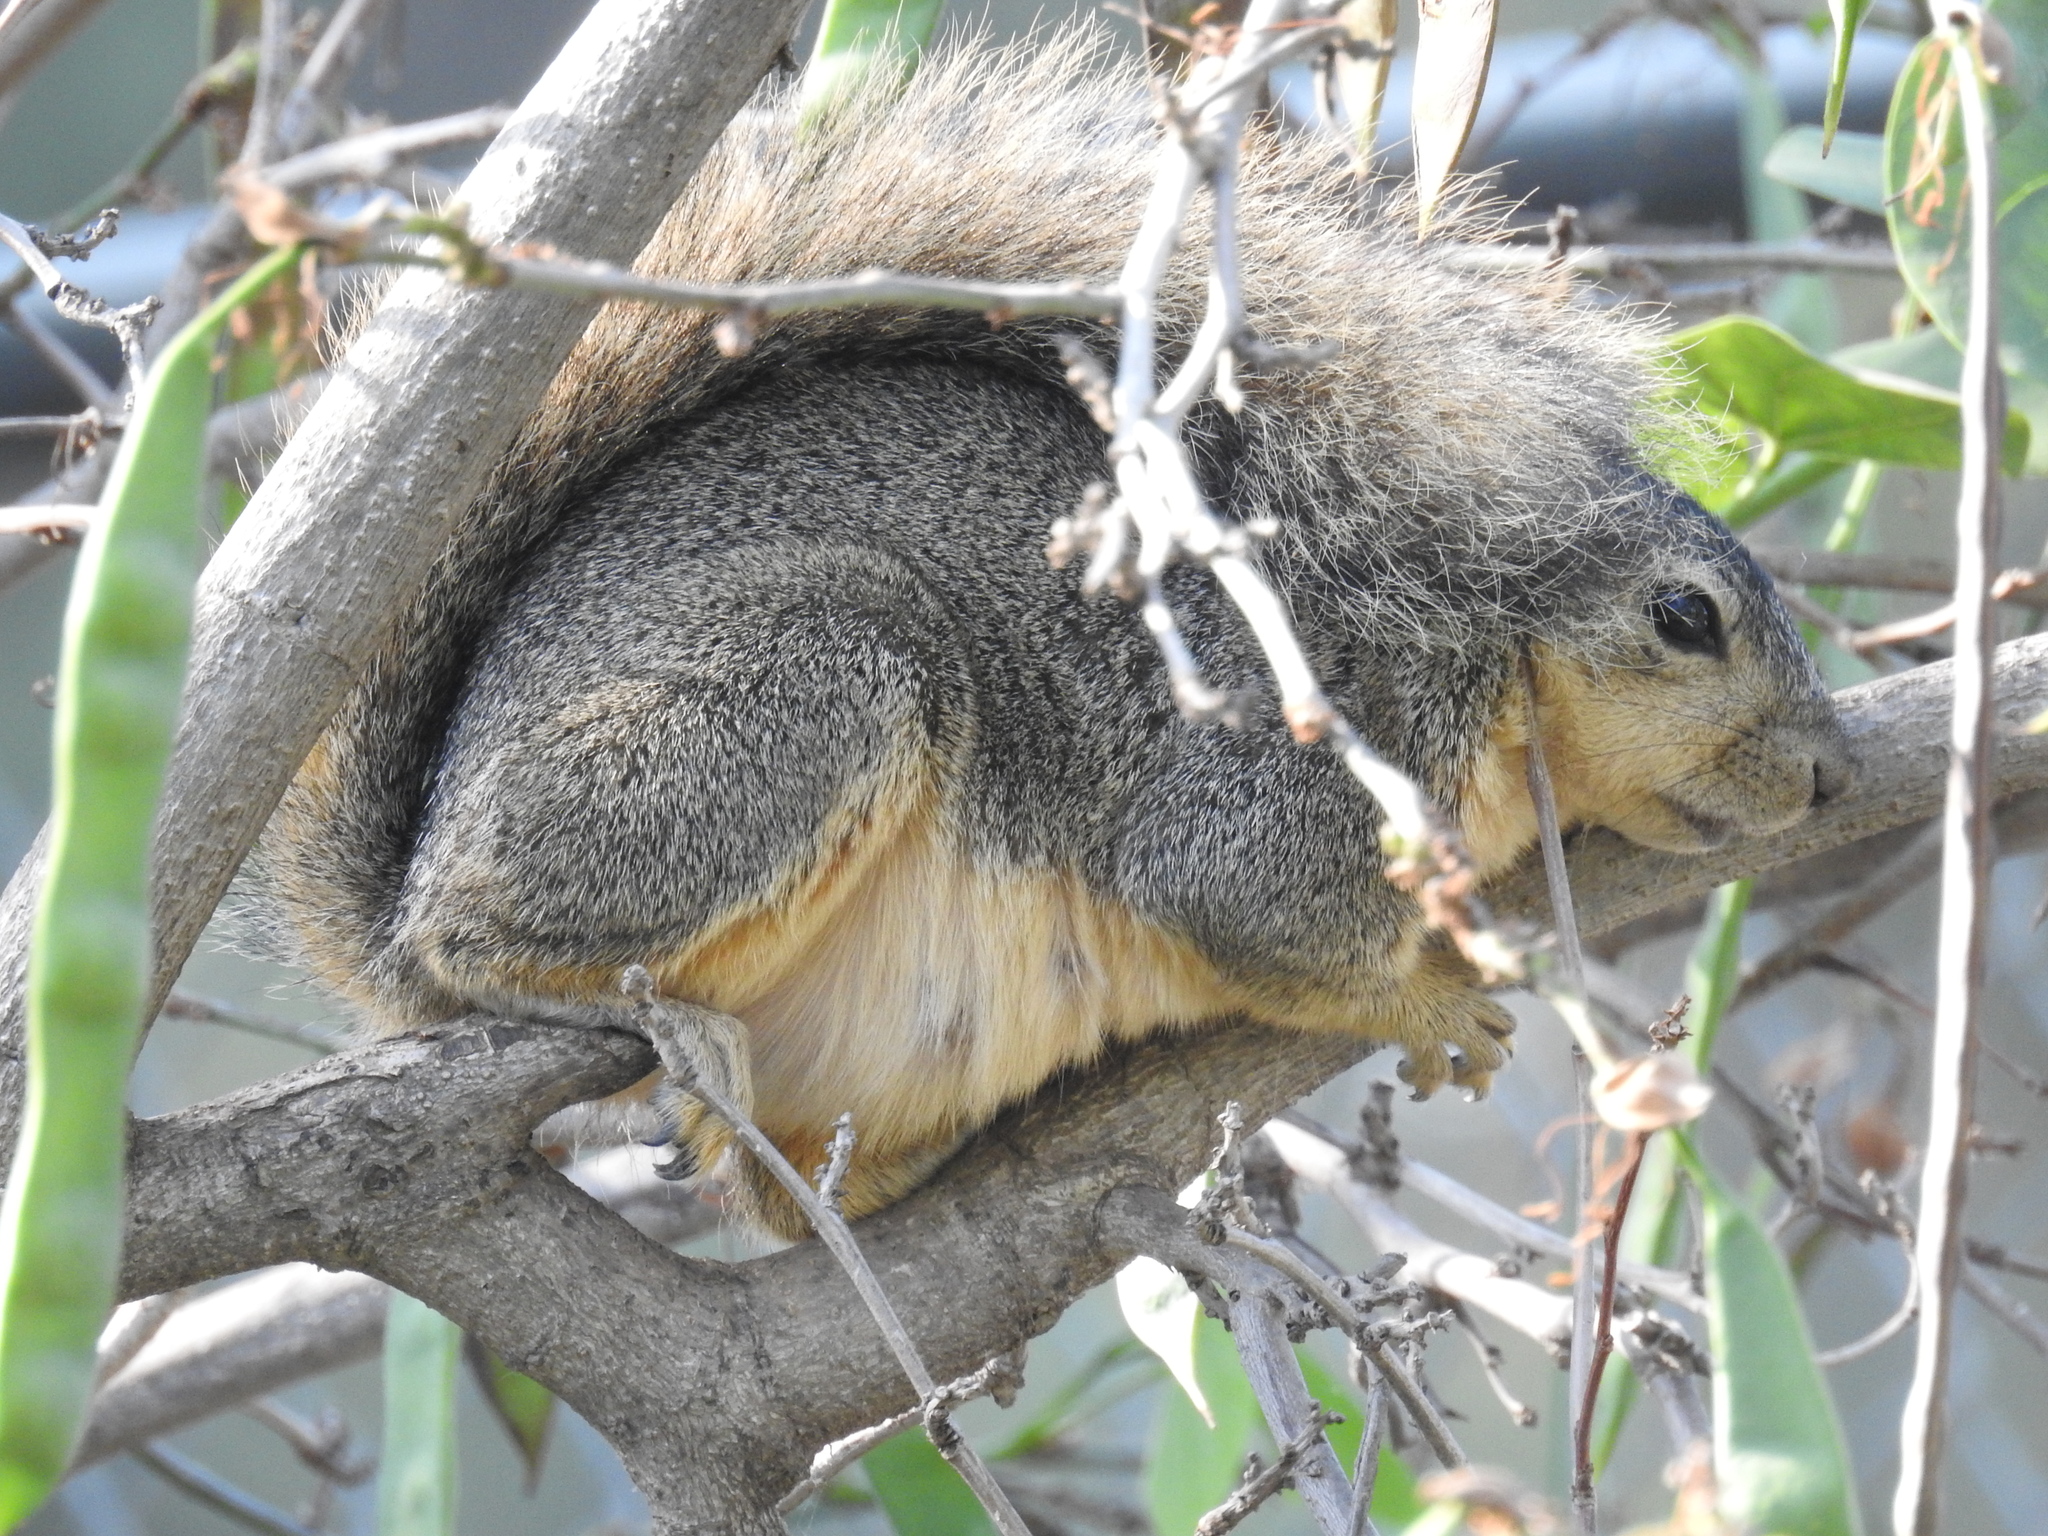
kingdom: Animalia
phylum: Chordata
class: Mammalia
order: Rodentia
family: Sciuridae
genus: Sciurus
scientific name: Sciurus niger
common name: Fox squirrel
